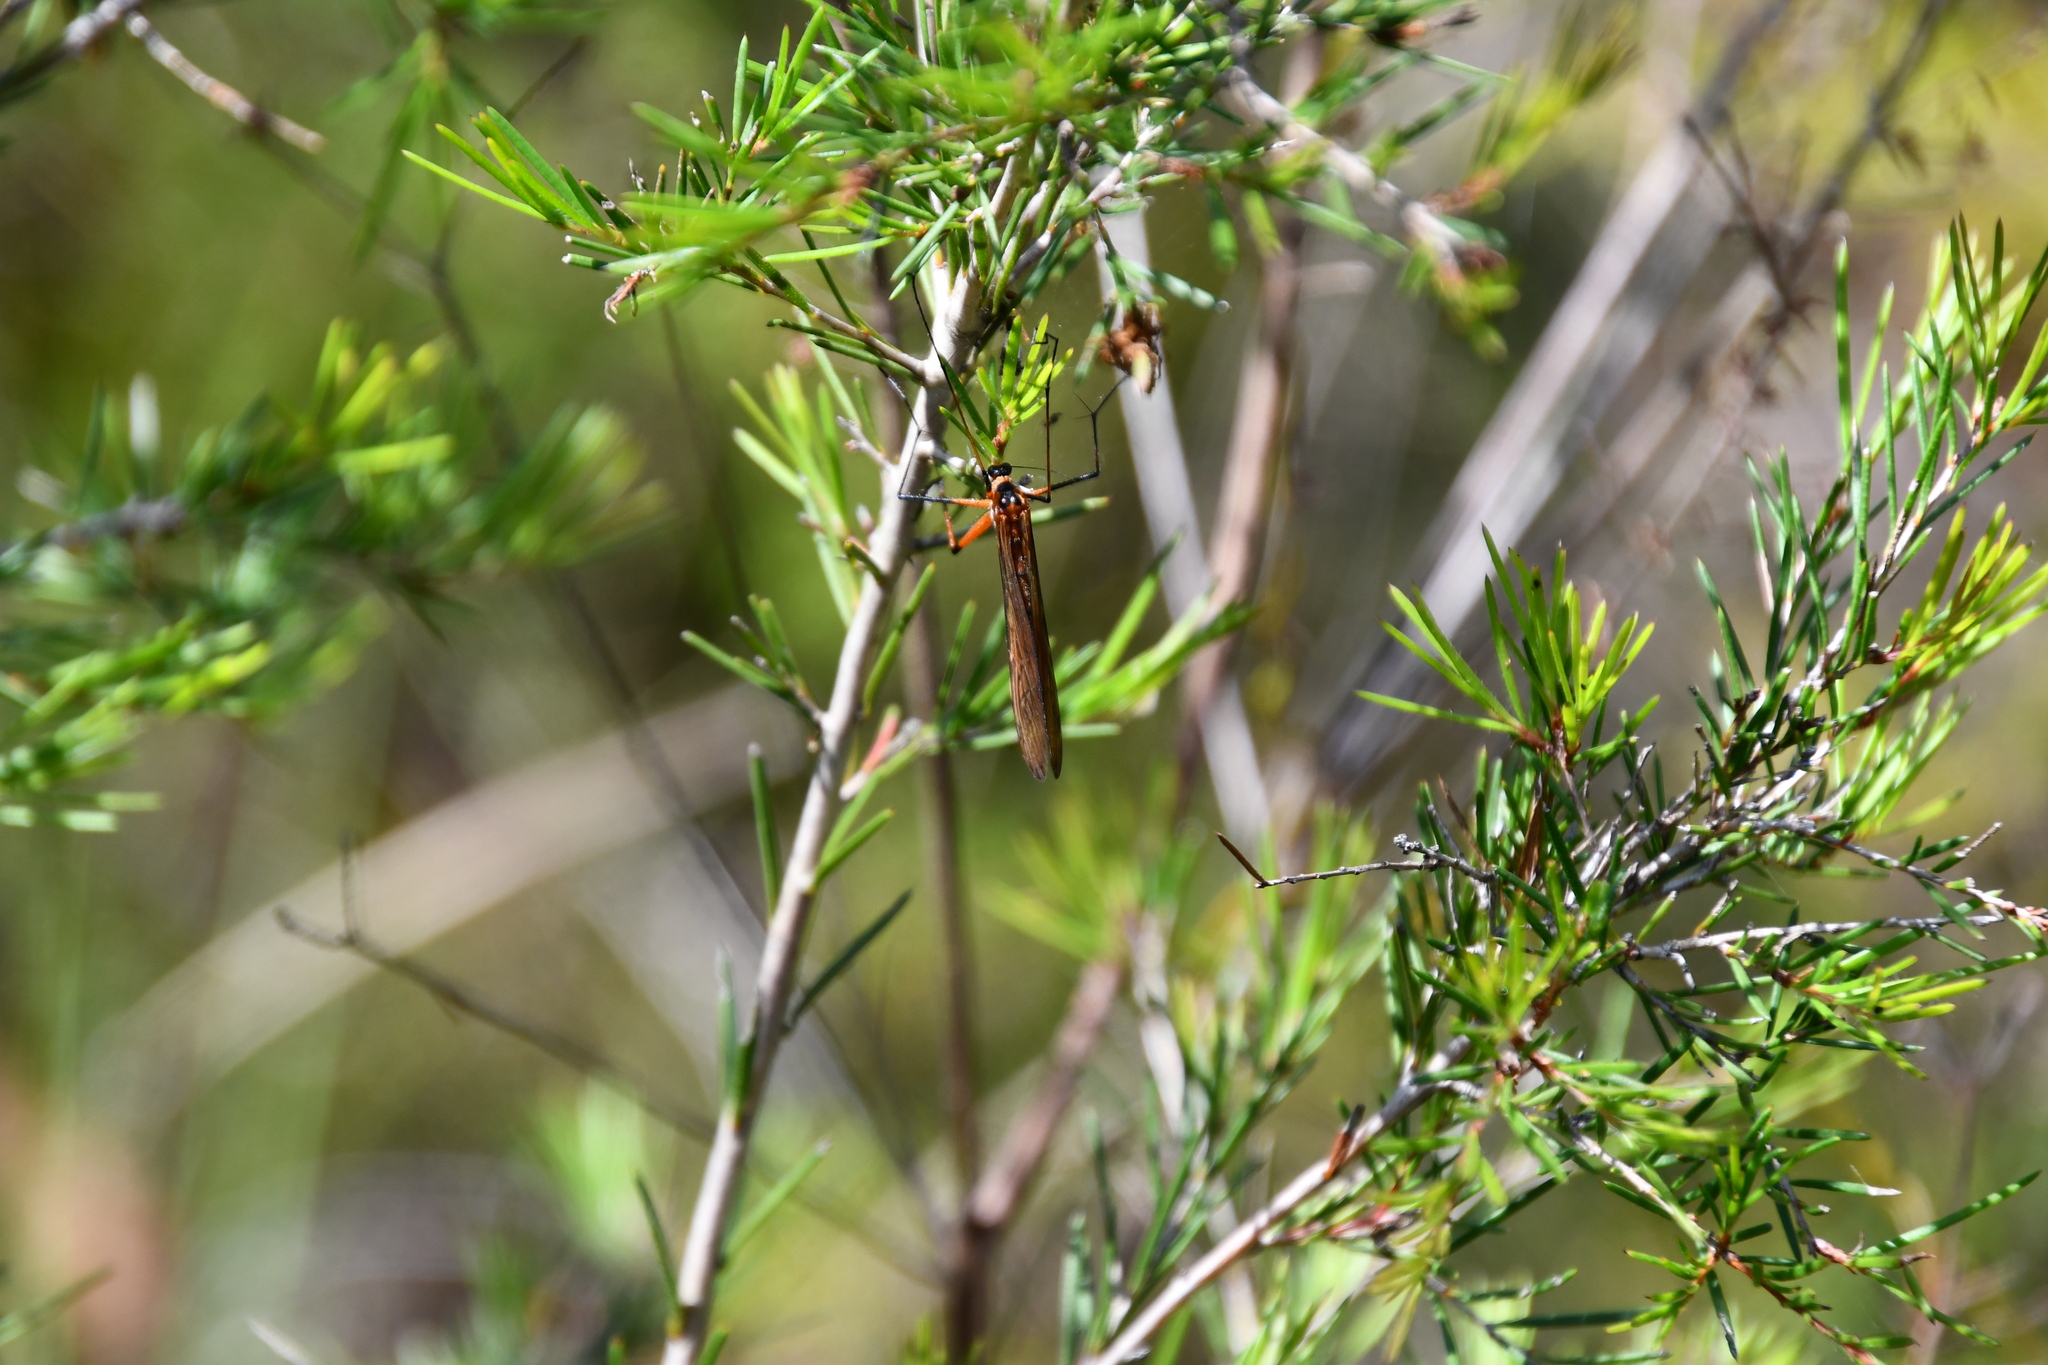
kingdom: Animalia
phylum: Arthropoda
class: Insecta
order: Mecoptera
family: Bittacidae
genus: Harpobittacus
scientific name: Harpobittacus australis
